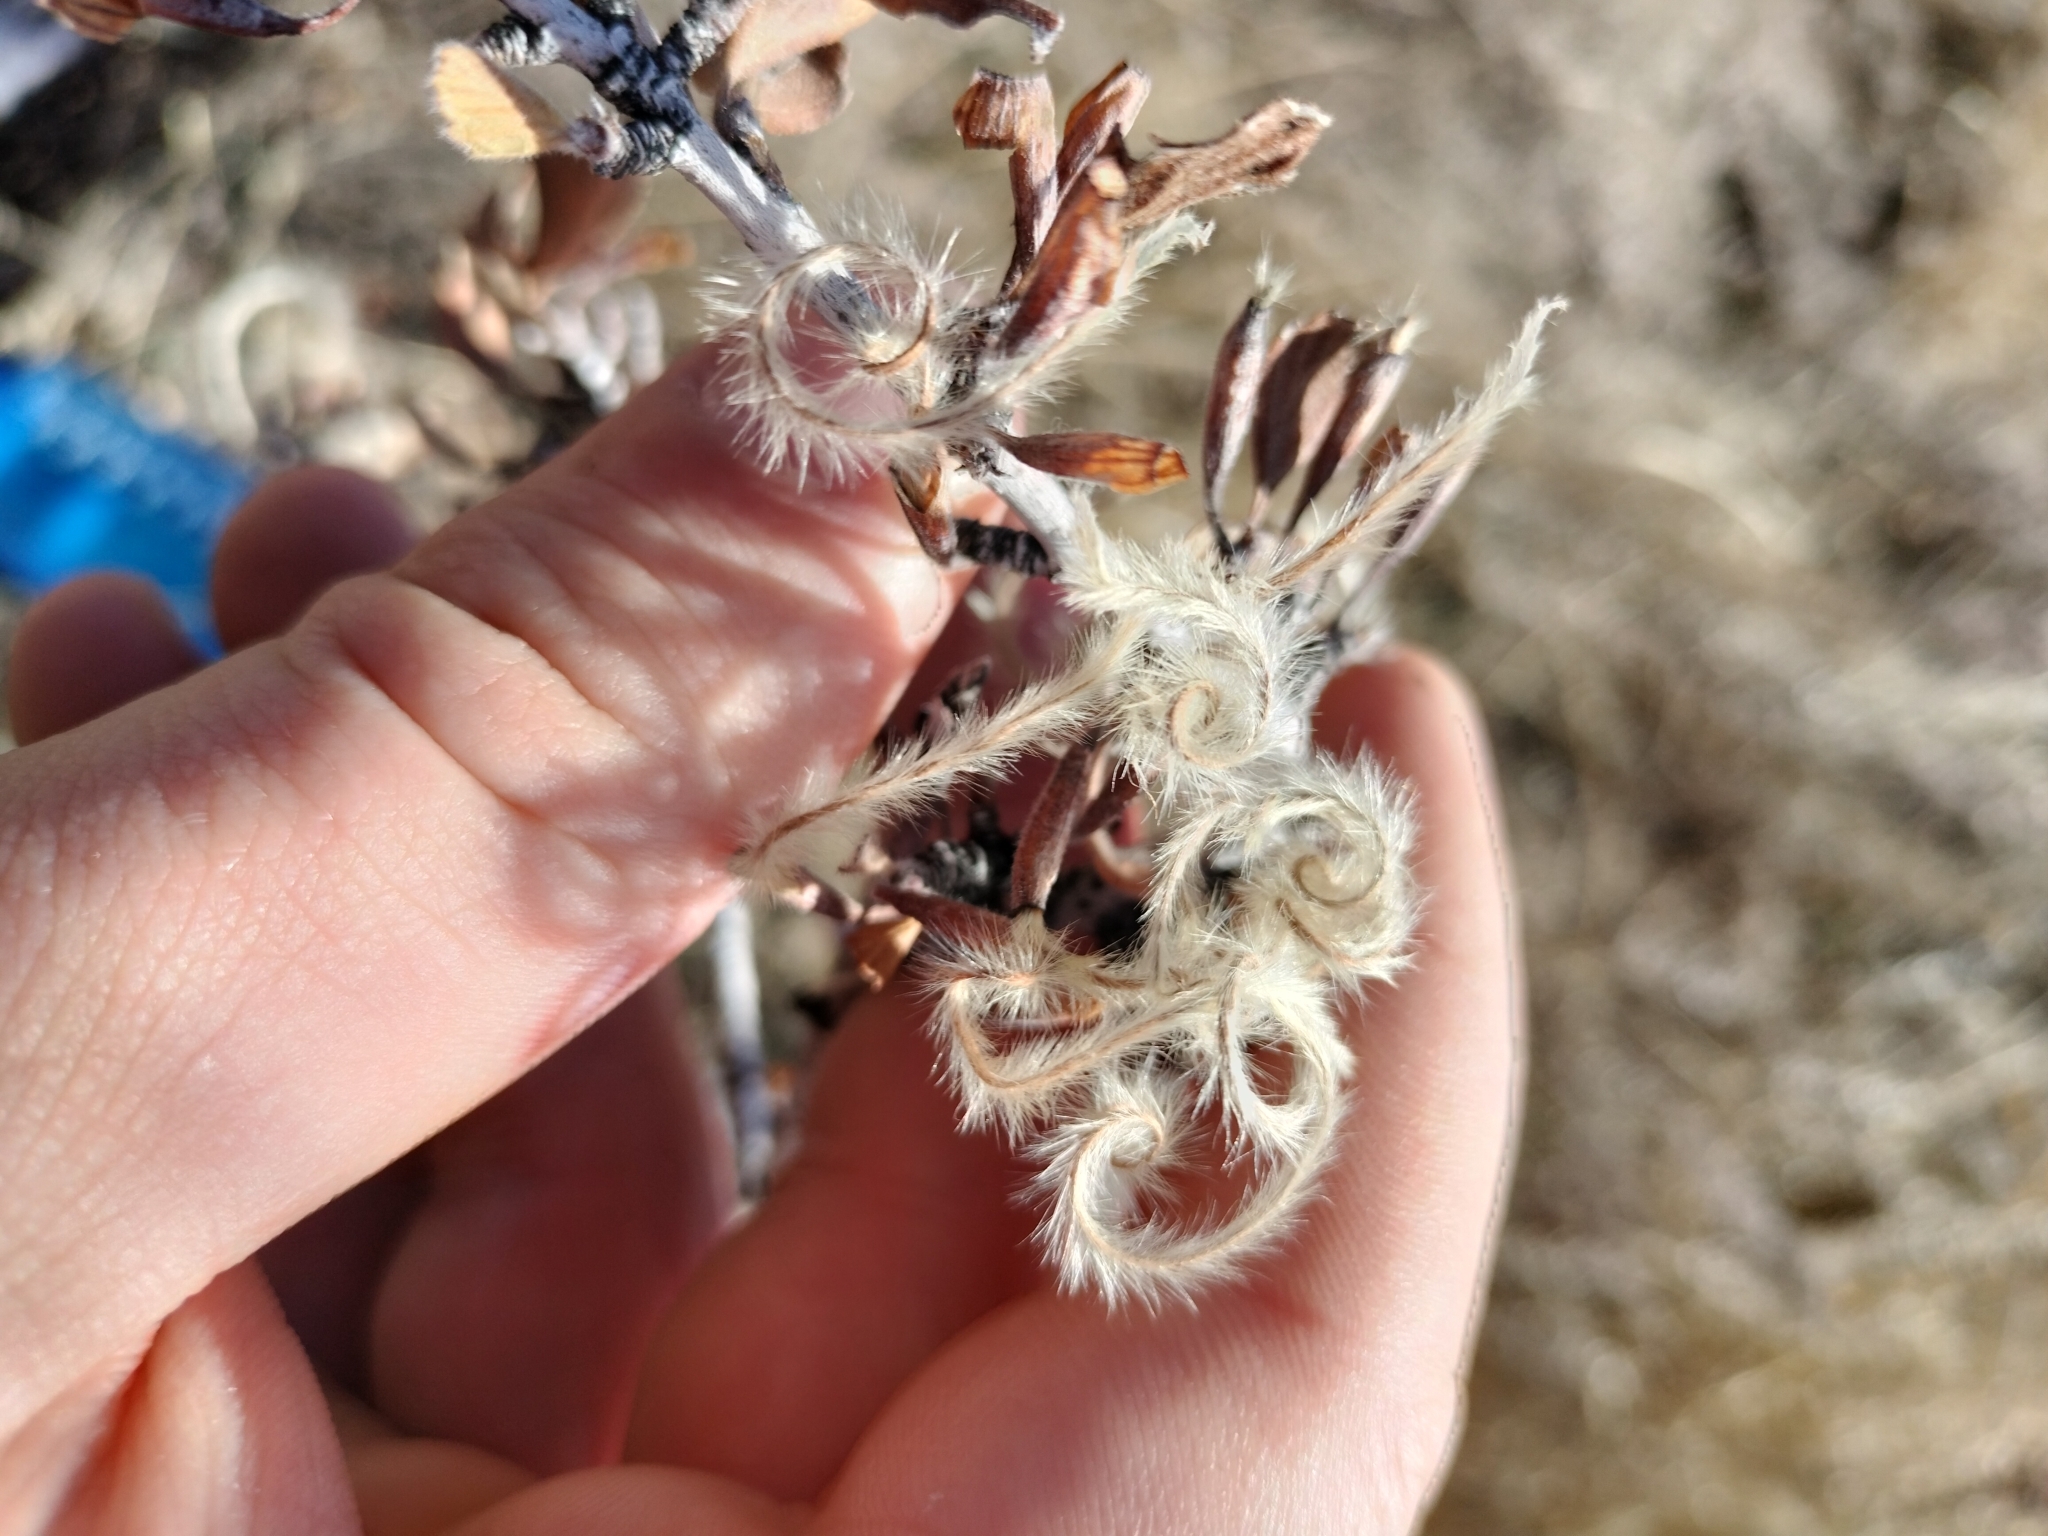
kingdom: Plantae
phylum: Tracheophyta
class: Magnoliopsida
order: Rosales
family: Rosaceae
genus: Cercocarpus
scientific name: Cercocarpus montanus
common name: Alder-leaf cercocarpus
